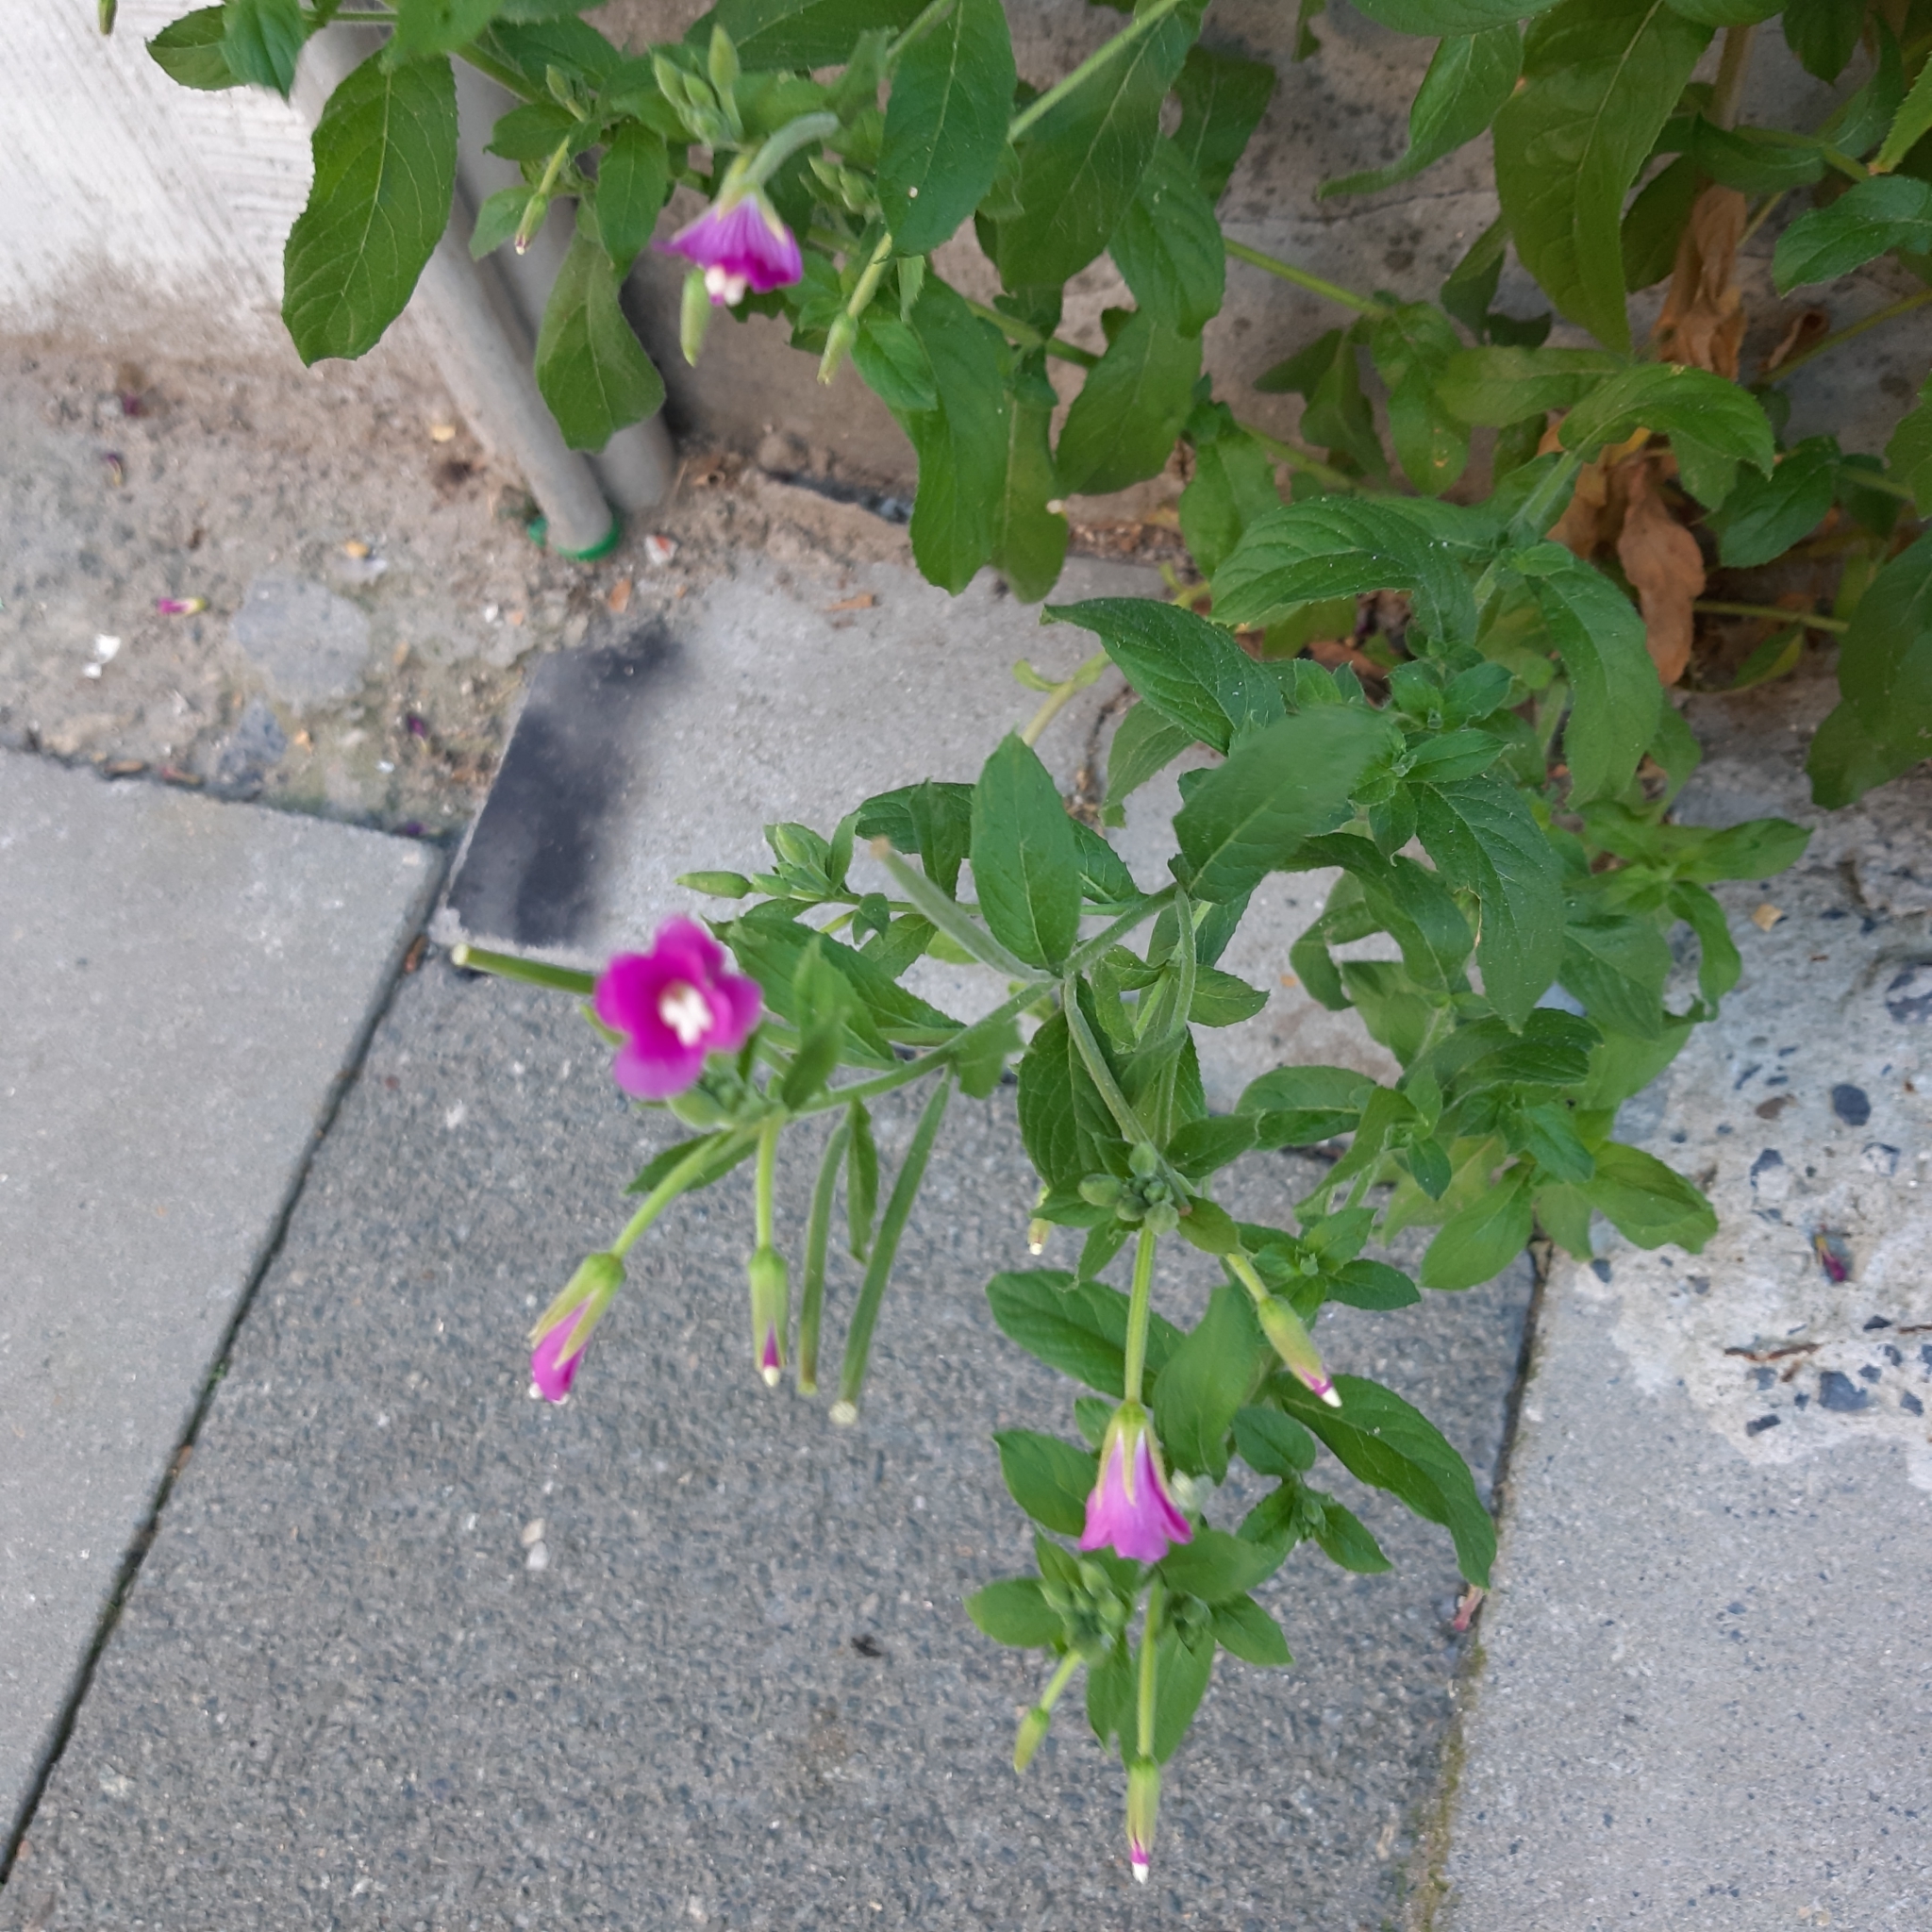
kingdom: Plantae
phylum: Tracheophyta
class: Magnoliopsida
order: Myrtales
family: Onagraceae
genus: Epilobium
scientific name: Epilobium hirsutum
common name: Great willowherb
